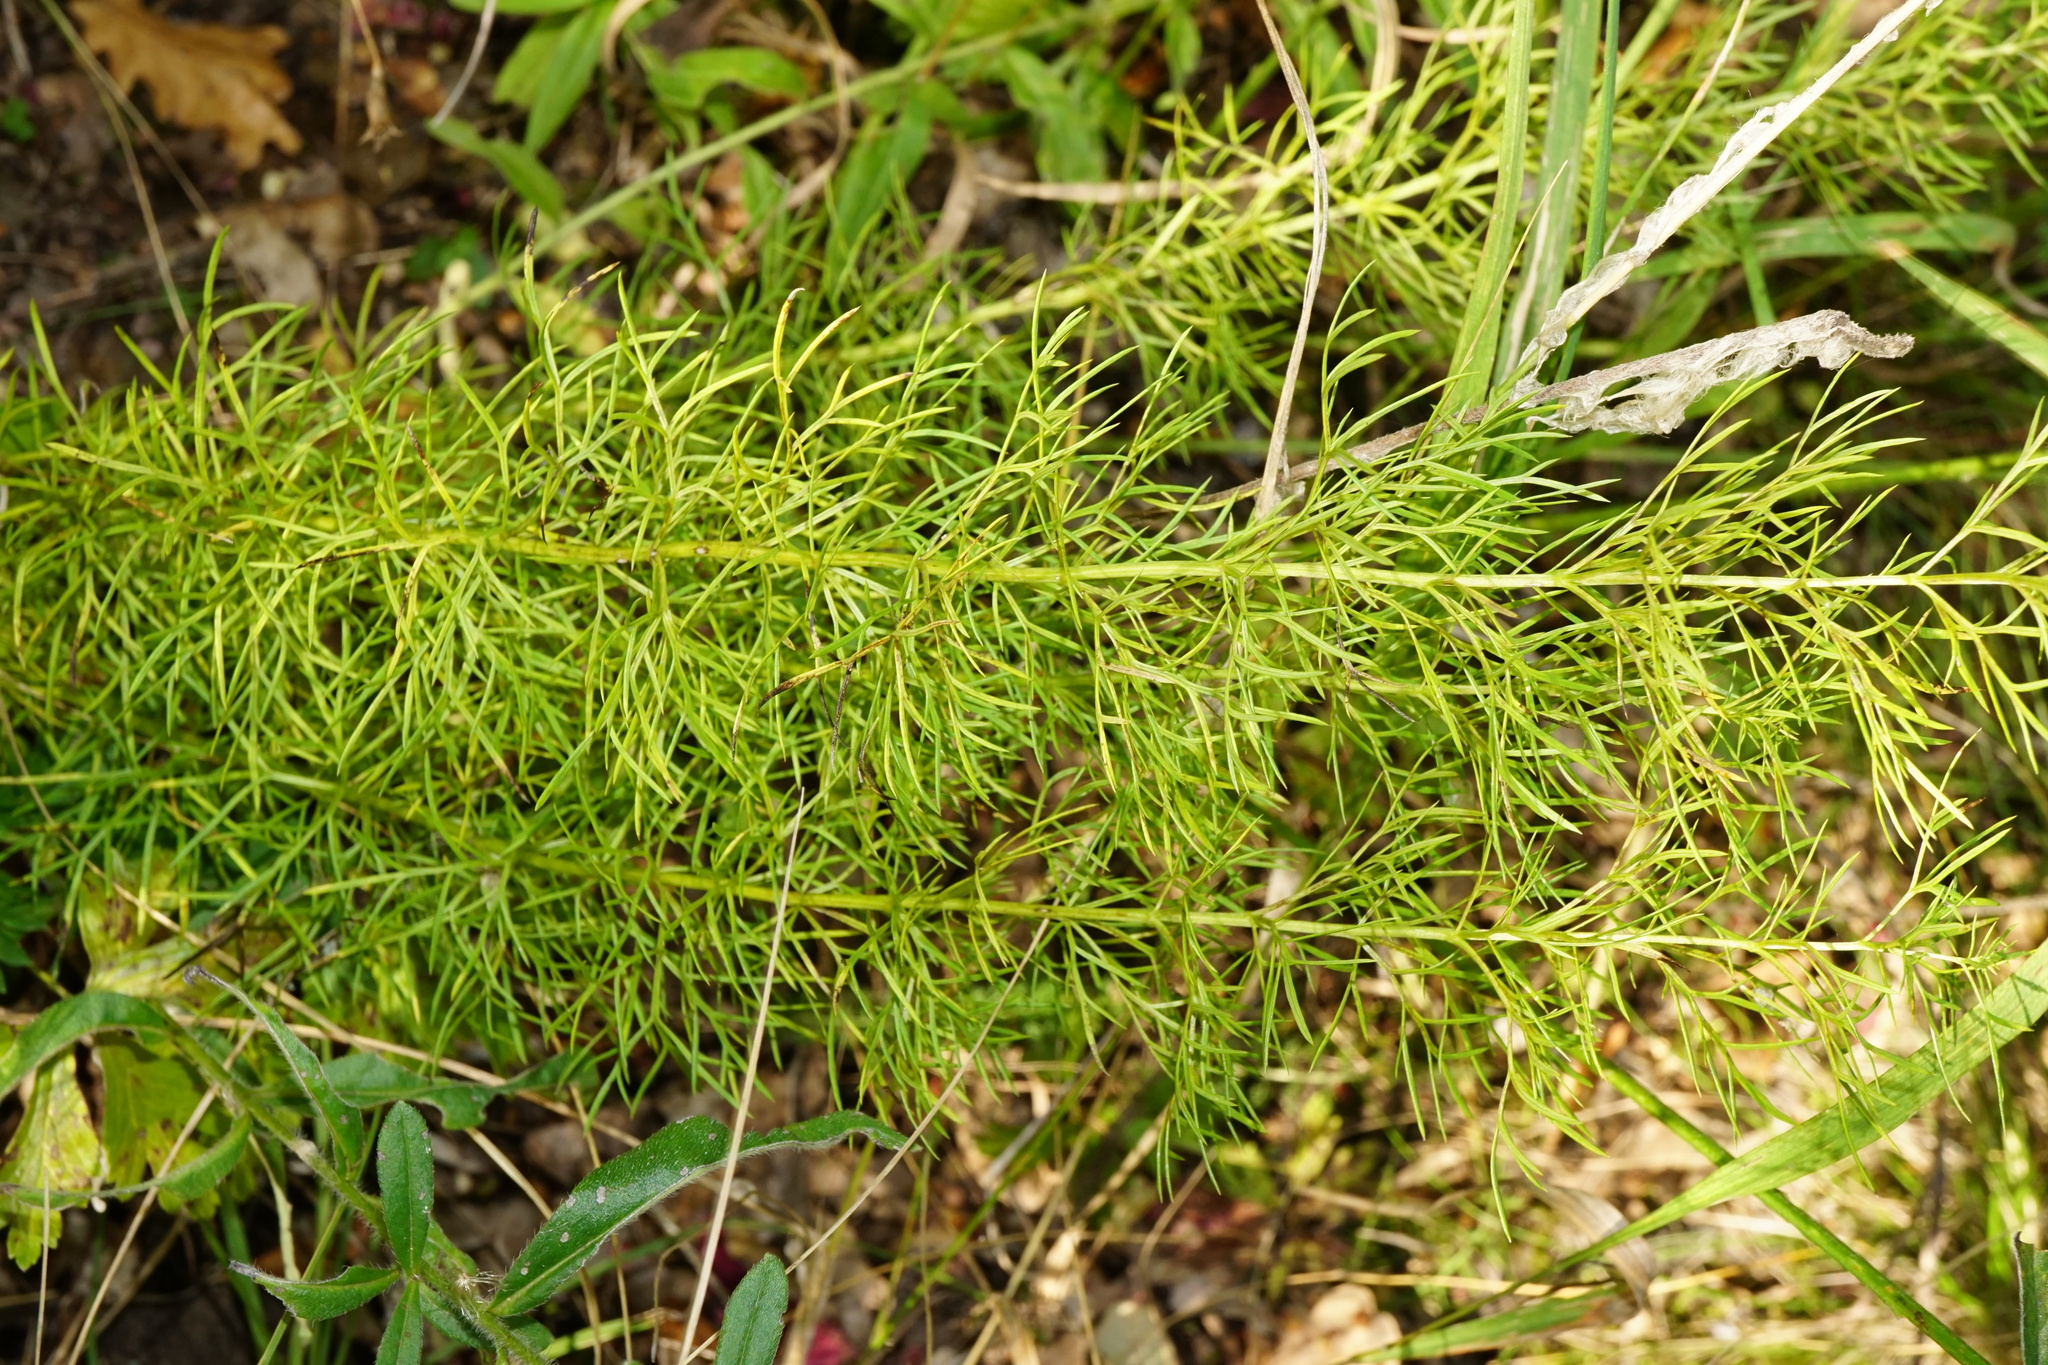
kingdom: Plantae
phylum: Tracheophyta
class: Magnoliopsida
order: Ranunculales
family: Ranunculaceae
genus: Adonis
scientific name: Adonis vernalis
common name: Yellow pheasants-eye
